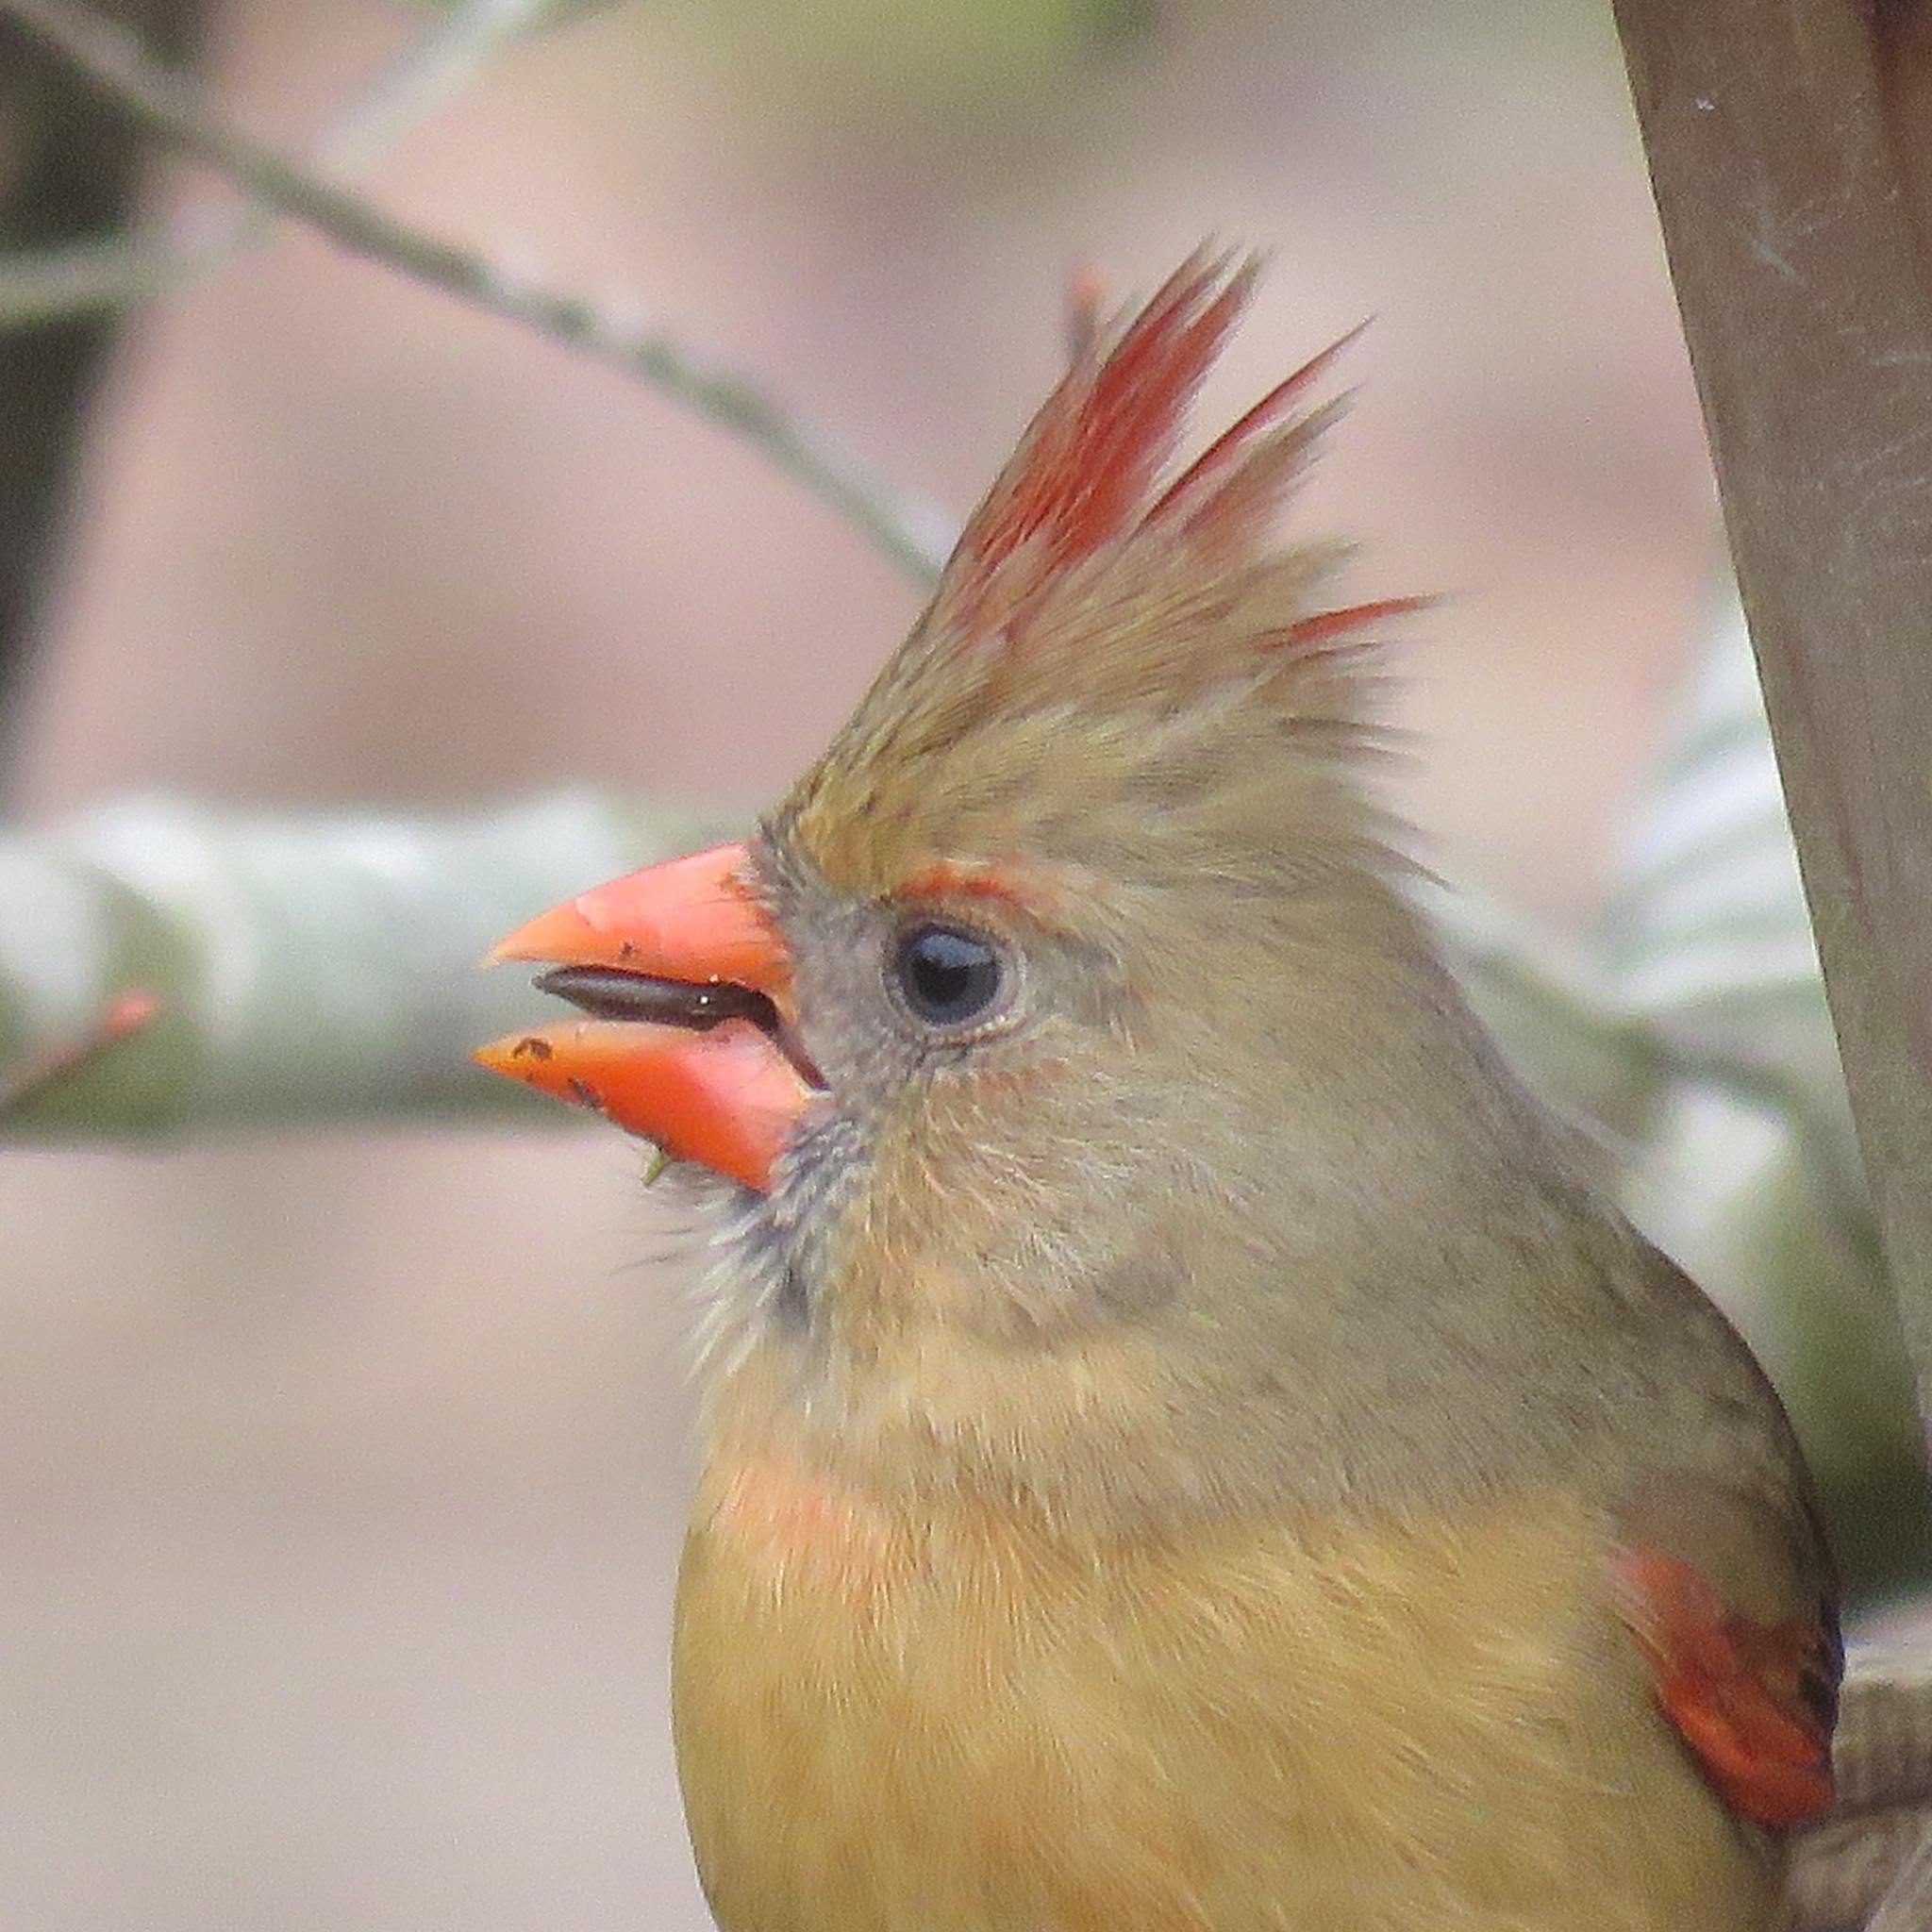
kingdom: Animalia
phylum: Chordata
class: Aves
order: Passeriformes
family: Cardinalidae
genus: Cardinalis
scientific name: Cardinalis cardinalis
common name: Northern cardinal
